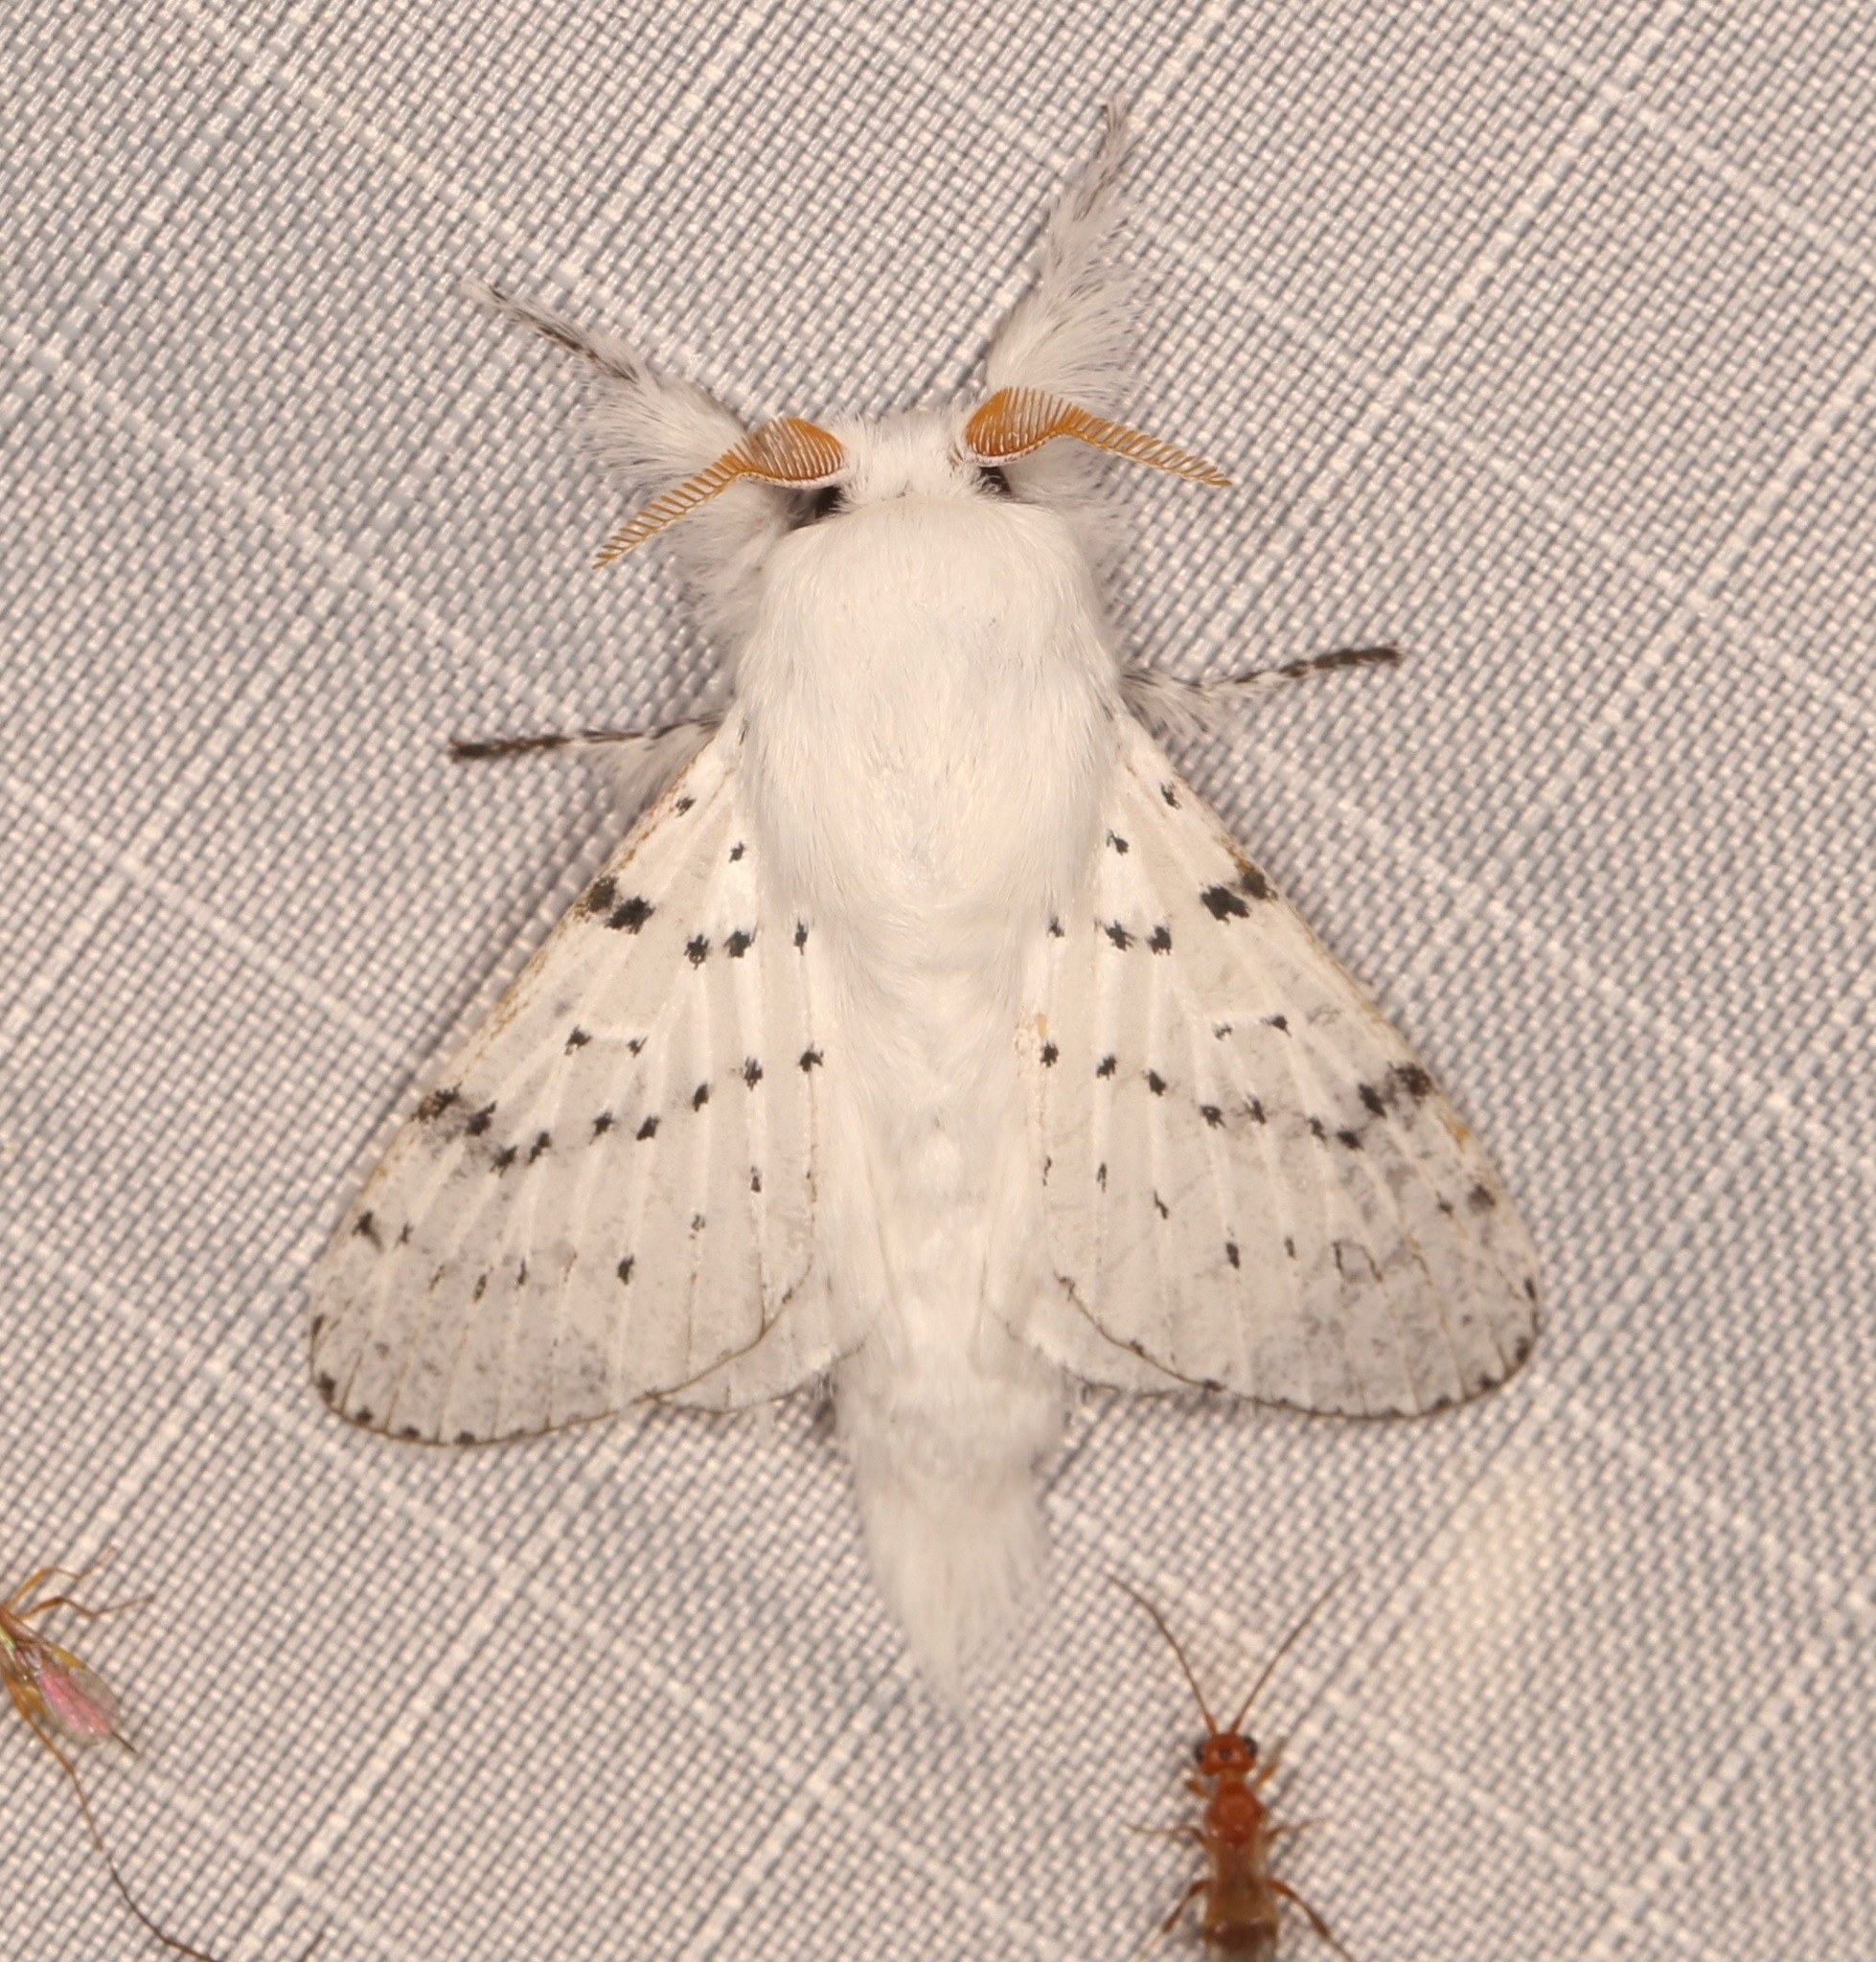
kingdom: Animalia
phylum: Arthropoda
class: Insecta
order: Lepidoptera
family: Lasiocampidae
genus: Artace
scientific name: Artace cribrarius
